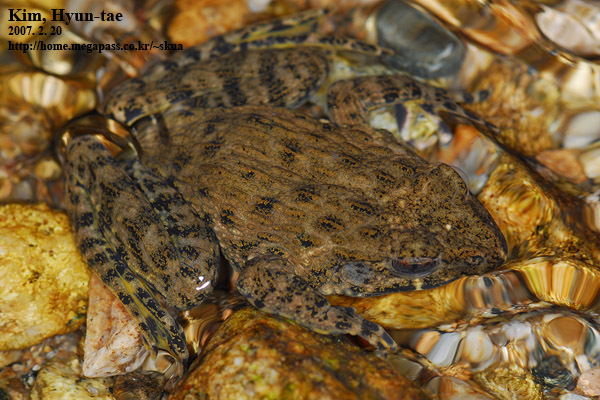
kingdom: Animalia
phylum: Chordata
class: Amphibia
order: Anura
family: Ranidae
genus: Glandirana
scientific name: Glandirana emeljanovi
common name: Northeast china rough-skinned frog
